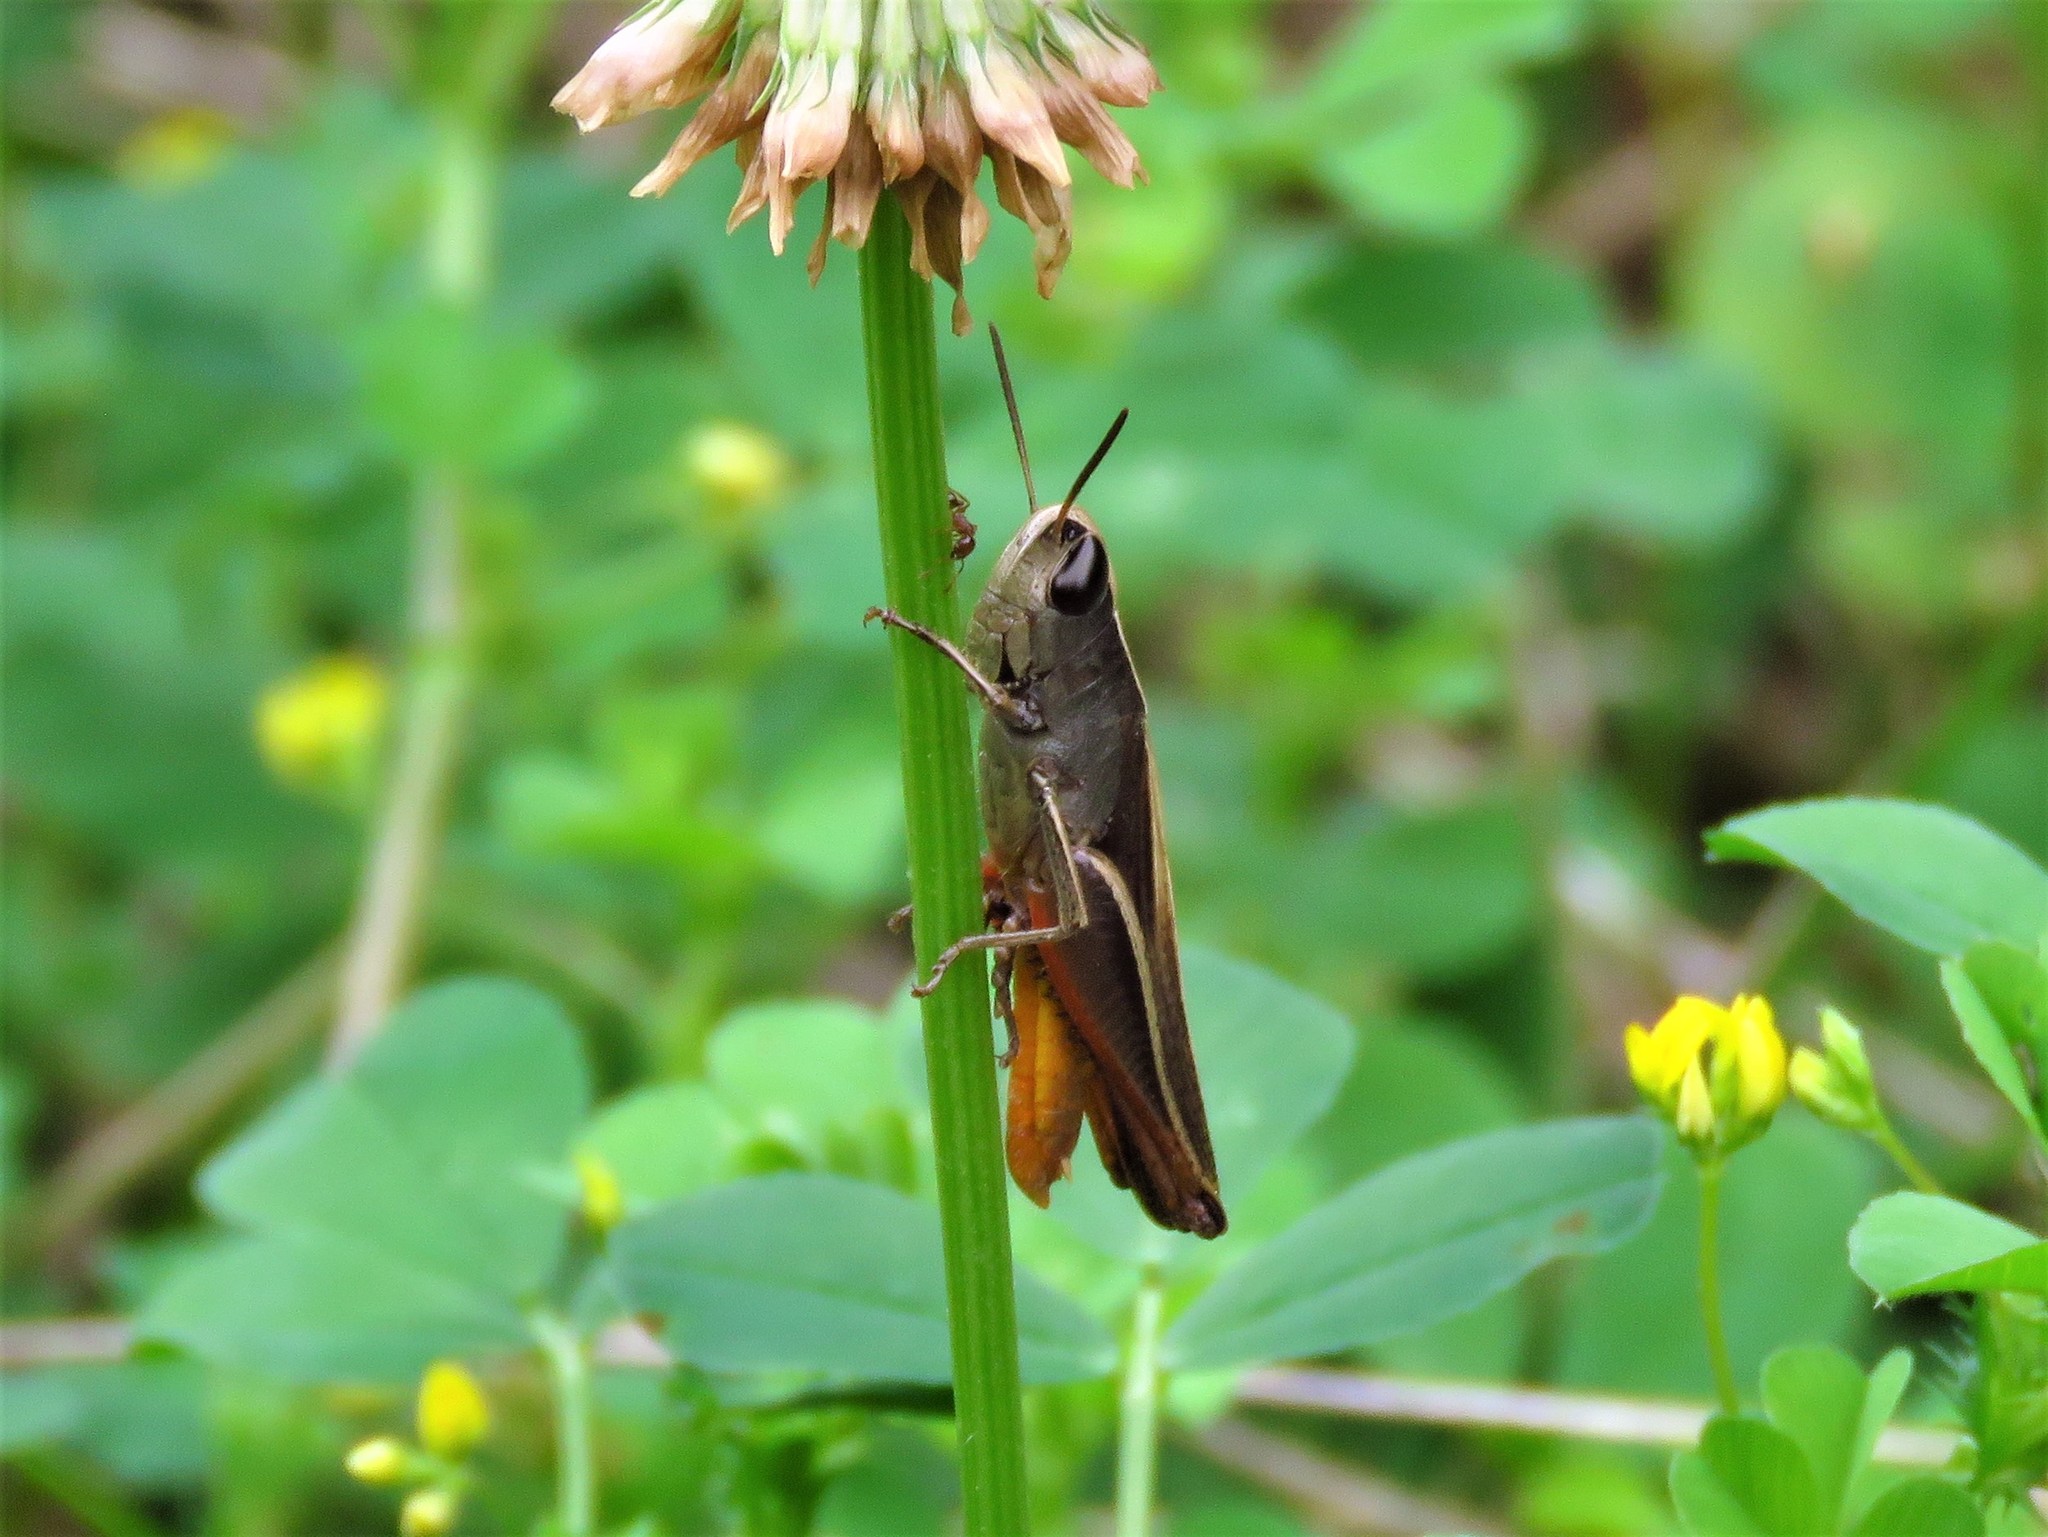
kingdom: Animalia
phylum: Arthropoda
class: Insecta
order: Orthoptera
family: Acrididae
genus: Amblytropidia
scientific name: Amblytropidia mysteca
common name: Brown winter grasshopper
